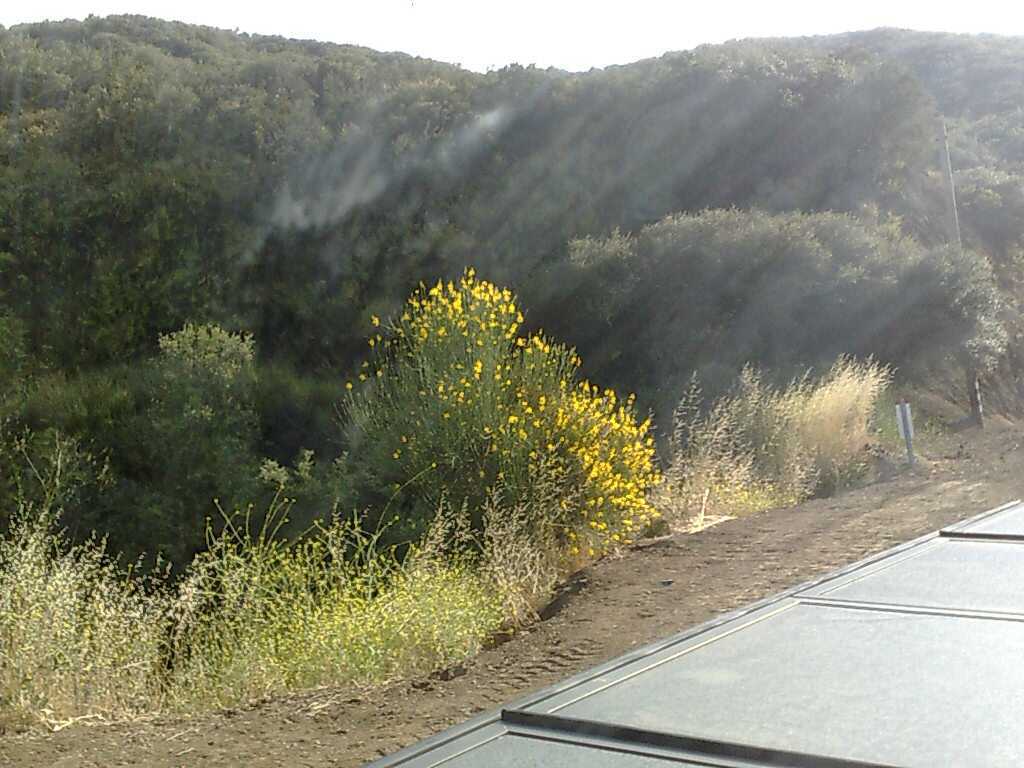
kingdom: Plantae
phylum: Tracheophyta
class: Magnoliopsida
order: Fabales
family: Fabaceae
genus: Spartium
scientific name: Spartium junceum
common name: Spanish broom
